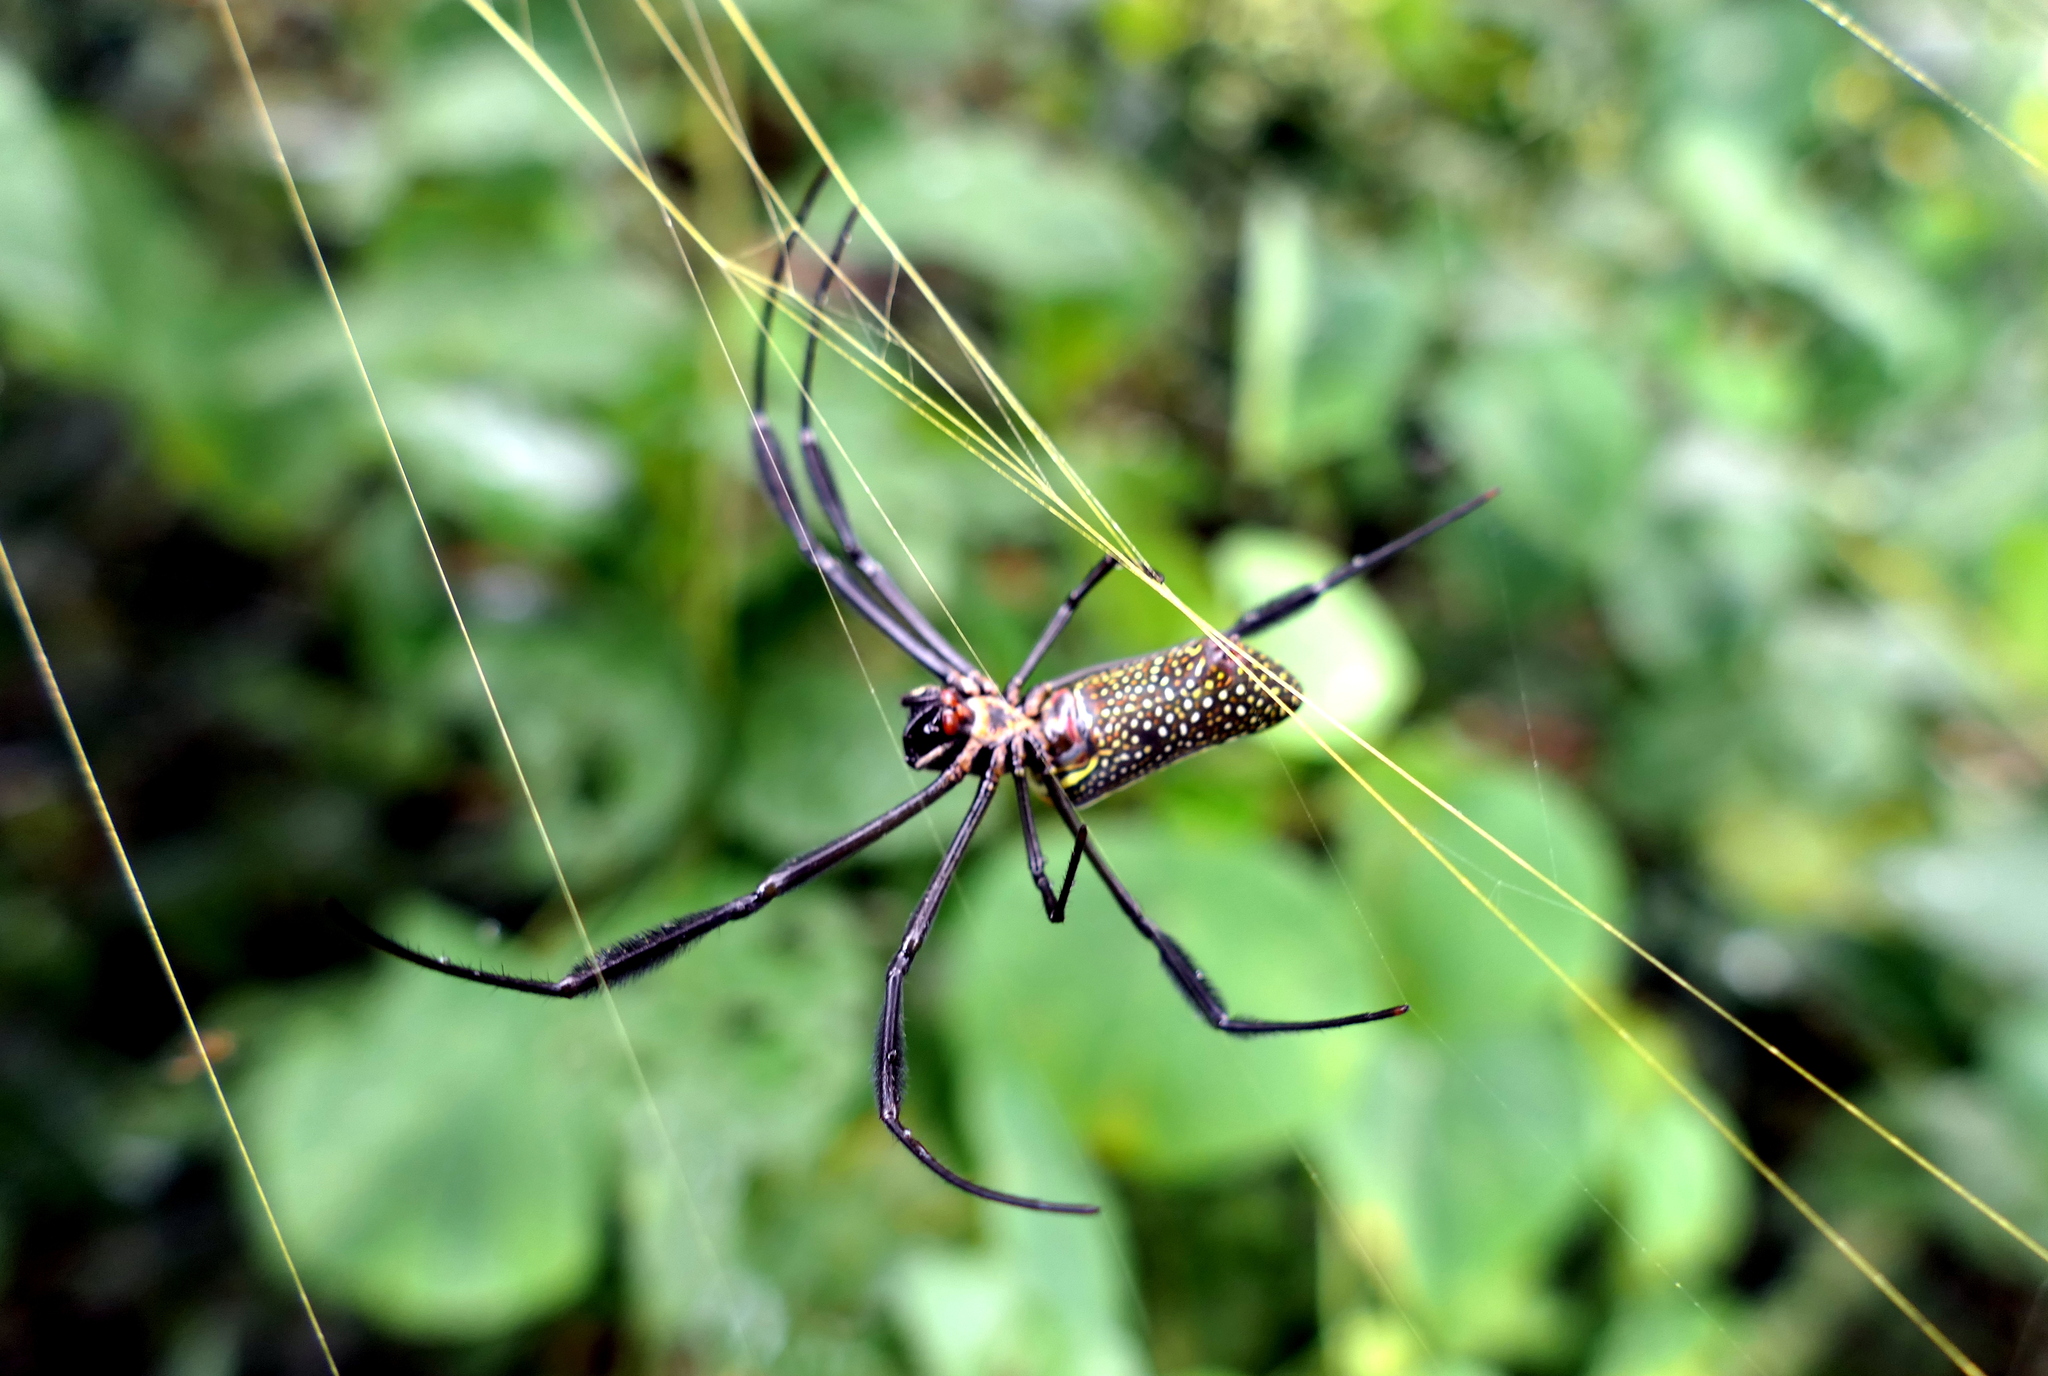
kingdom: Animalia
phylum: Arthropoda
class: Arachnida
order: Araneae
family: Araneidae
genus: Trichonephila
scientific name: Trichonephila clavipes
